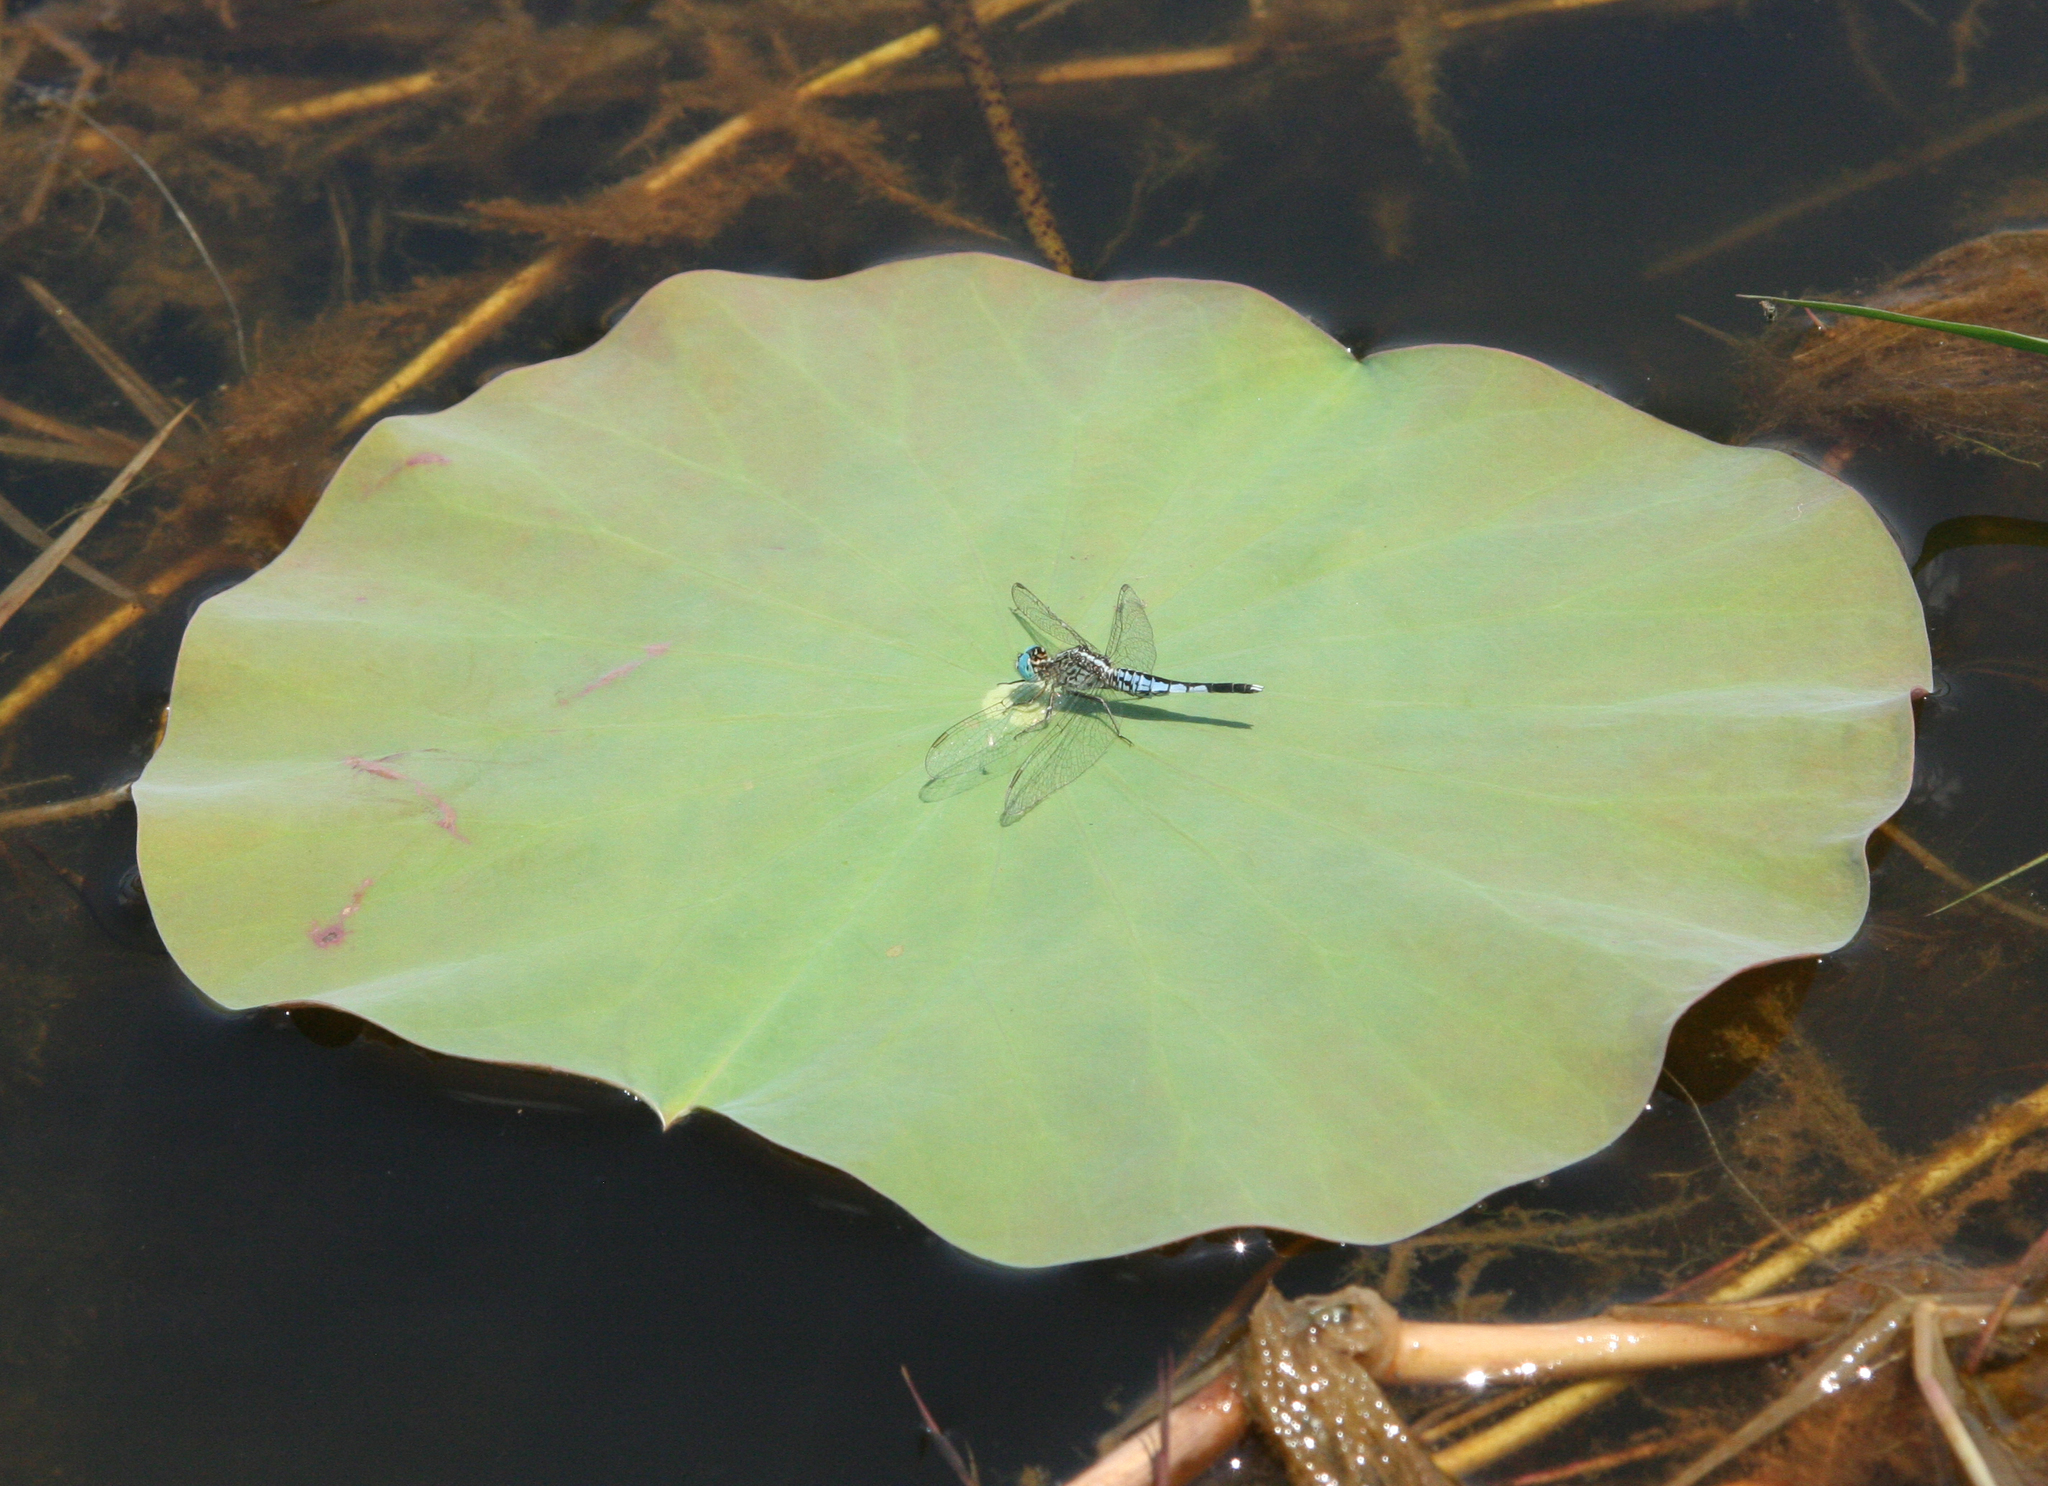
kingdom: Animalia
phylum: Arthropoda
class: Insecta
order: Odonata
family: Libellulidae
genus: Acisoma
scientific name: Acisoma panorpoides
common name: Asian pintail
